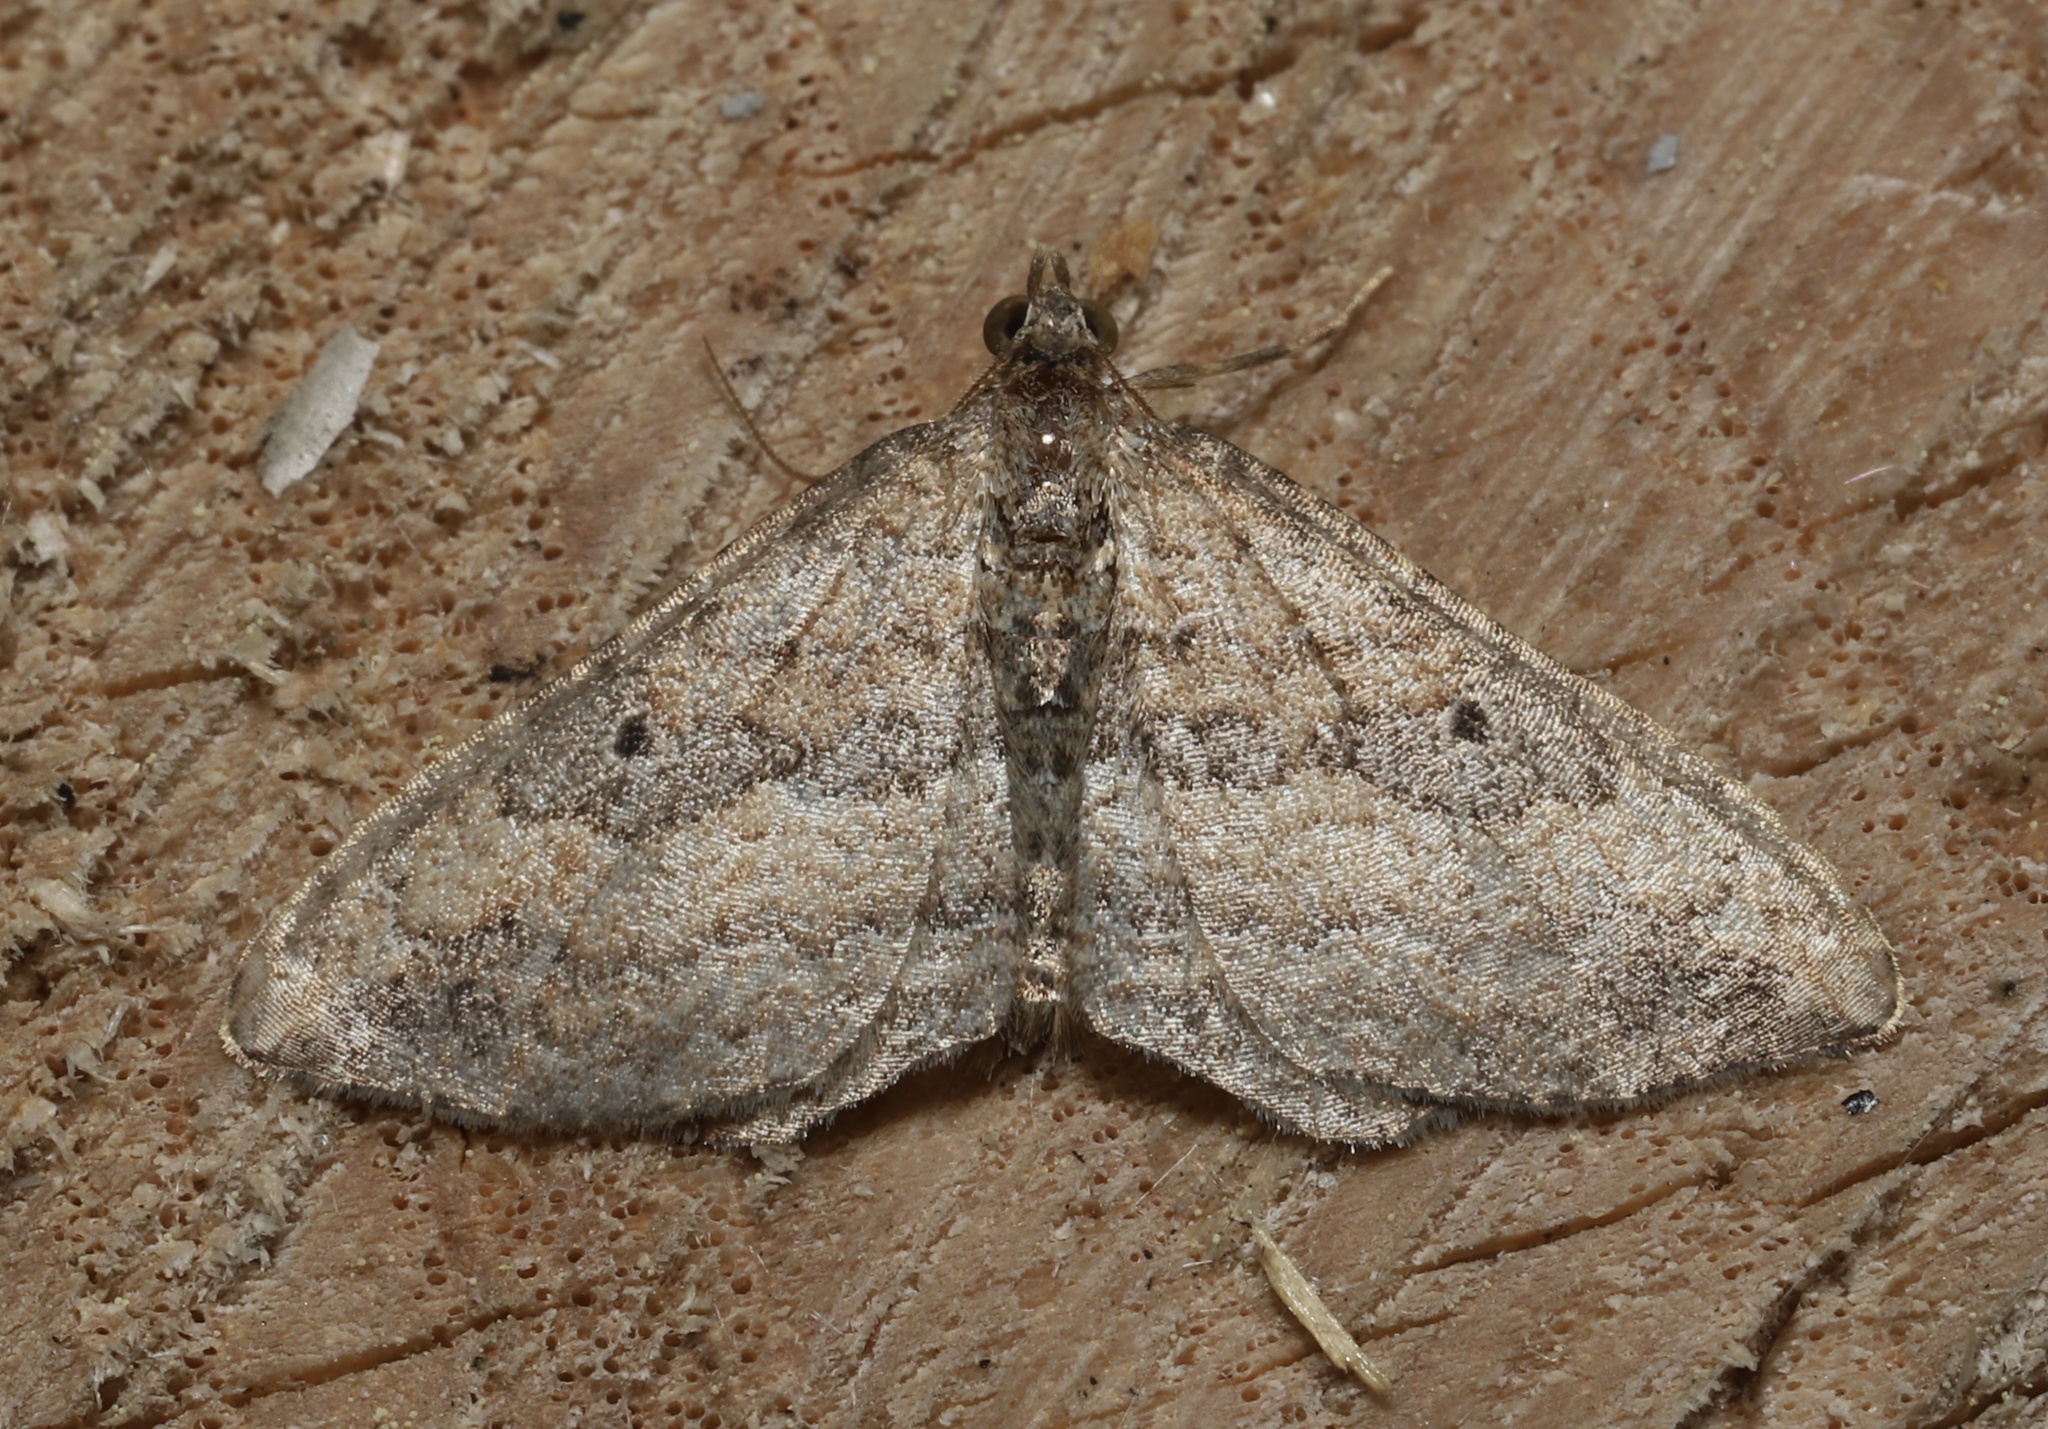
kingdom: Animalia
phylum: Arthropoda
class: Insecta
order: Lepidoptera
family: Geometridae
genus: Orthonama
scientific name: Orthonama obstipata
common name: The gem
